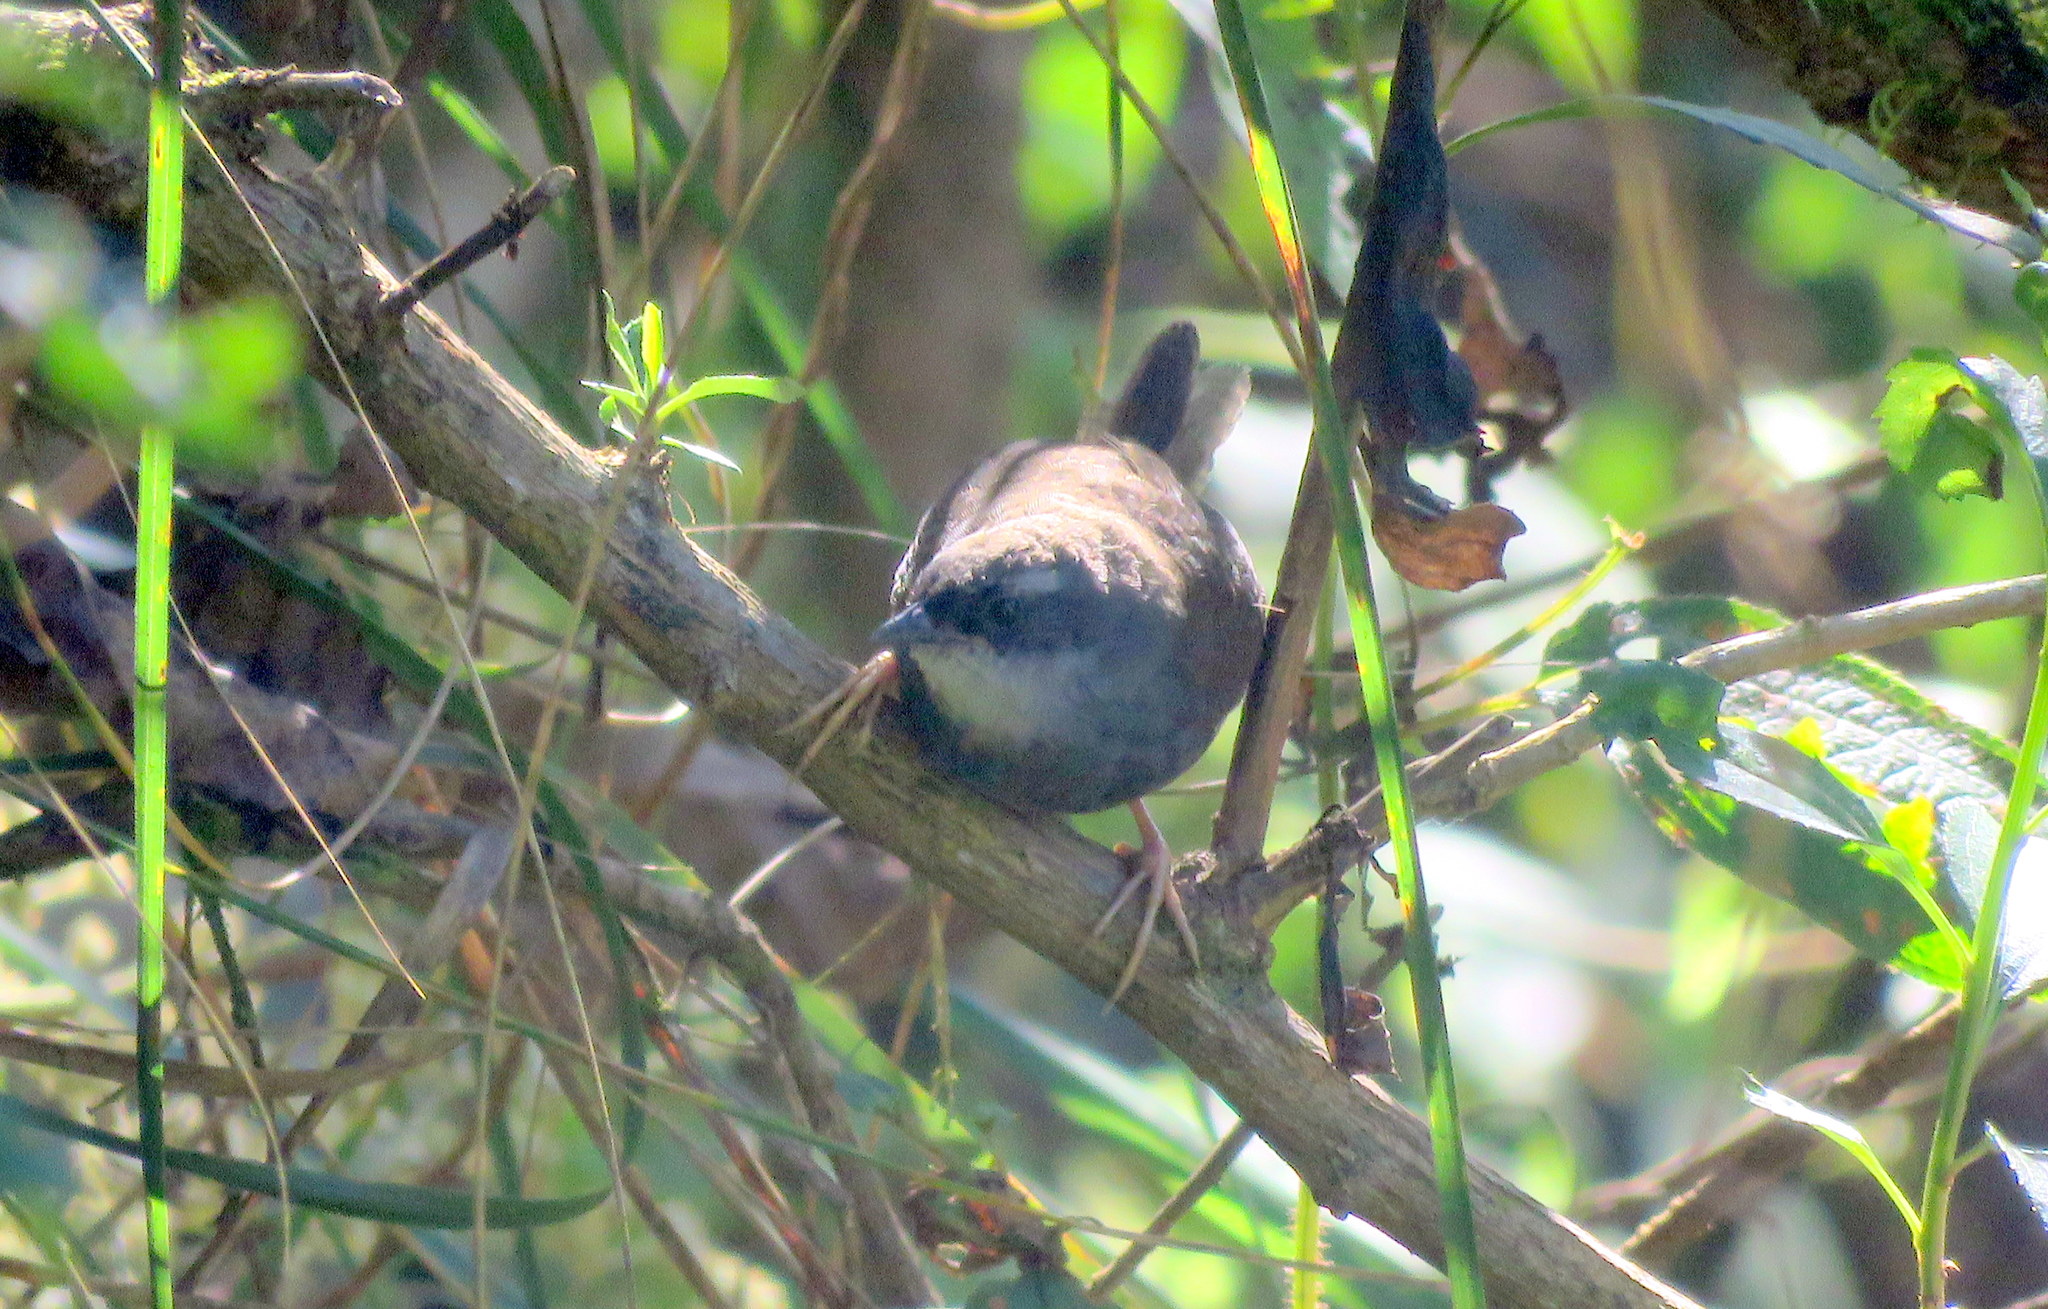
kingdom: Animalia
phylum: Chordata
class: Aves
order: Passeriformes
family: Rhinocryptidae
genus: Scytalopus
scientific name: Scytalopus superciliaris
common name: White-browed tapaculo
